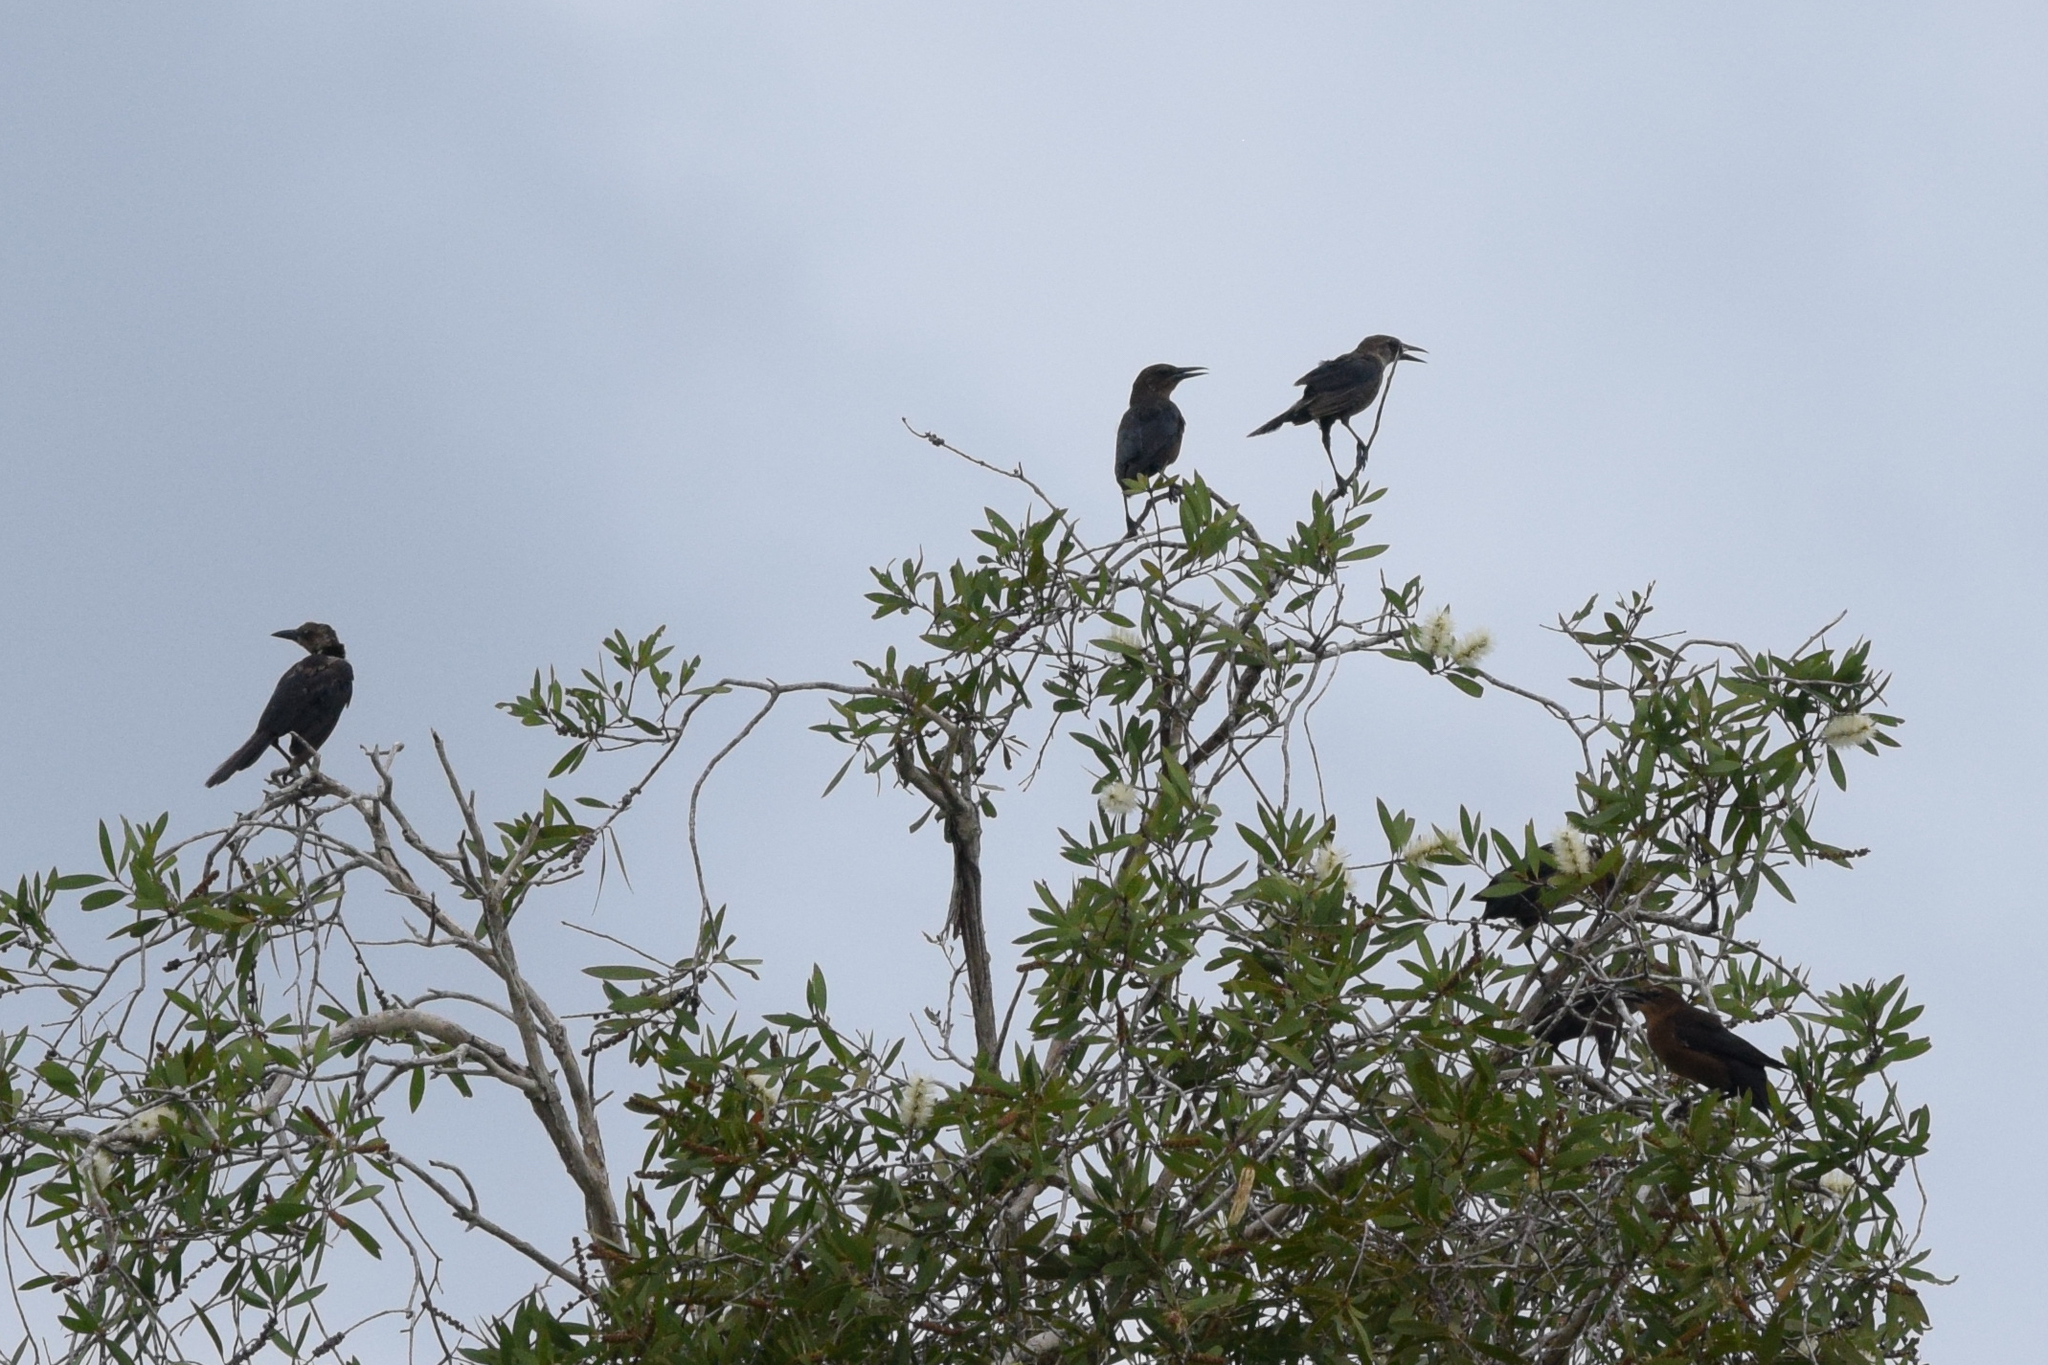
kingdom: Animalia
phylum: Chordata
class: Aves
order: Passeriformes
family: Icteridae
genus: Quiscalus
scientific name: Quiscalus major
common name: Boat-tailed grackle
